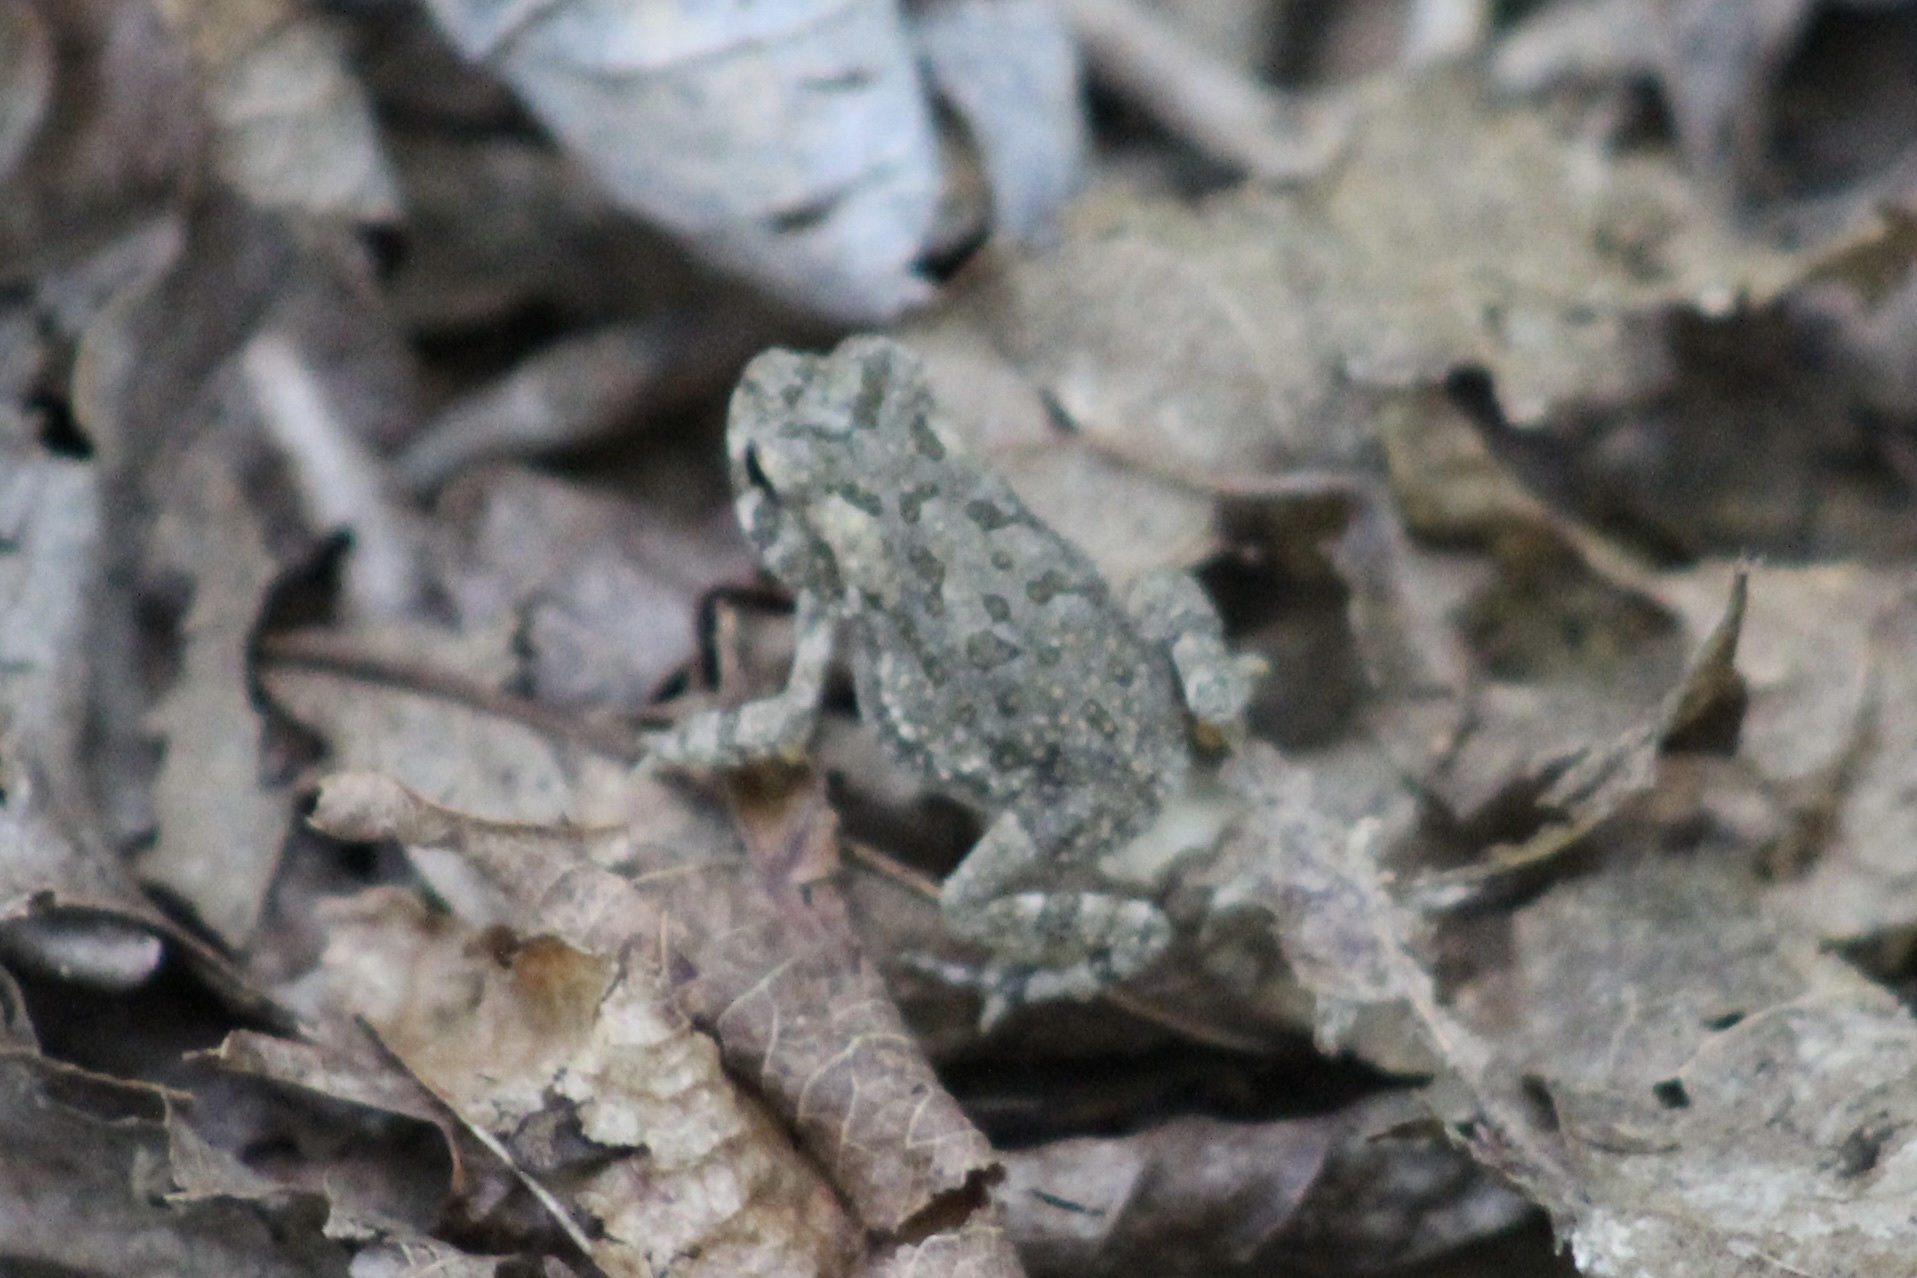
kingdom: Animalia
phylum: Chordata
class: Amphibia
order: Anura
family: Bufonidae
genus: Anaxyrus
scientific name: Anaxyrus fowleri
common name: Fowler's toad
